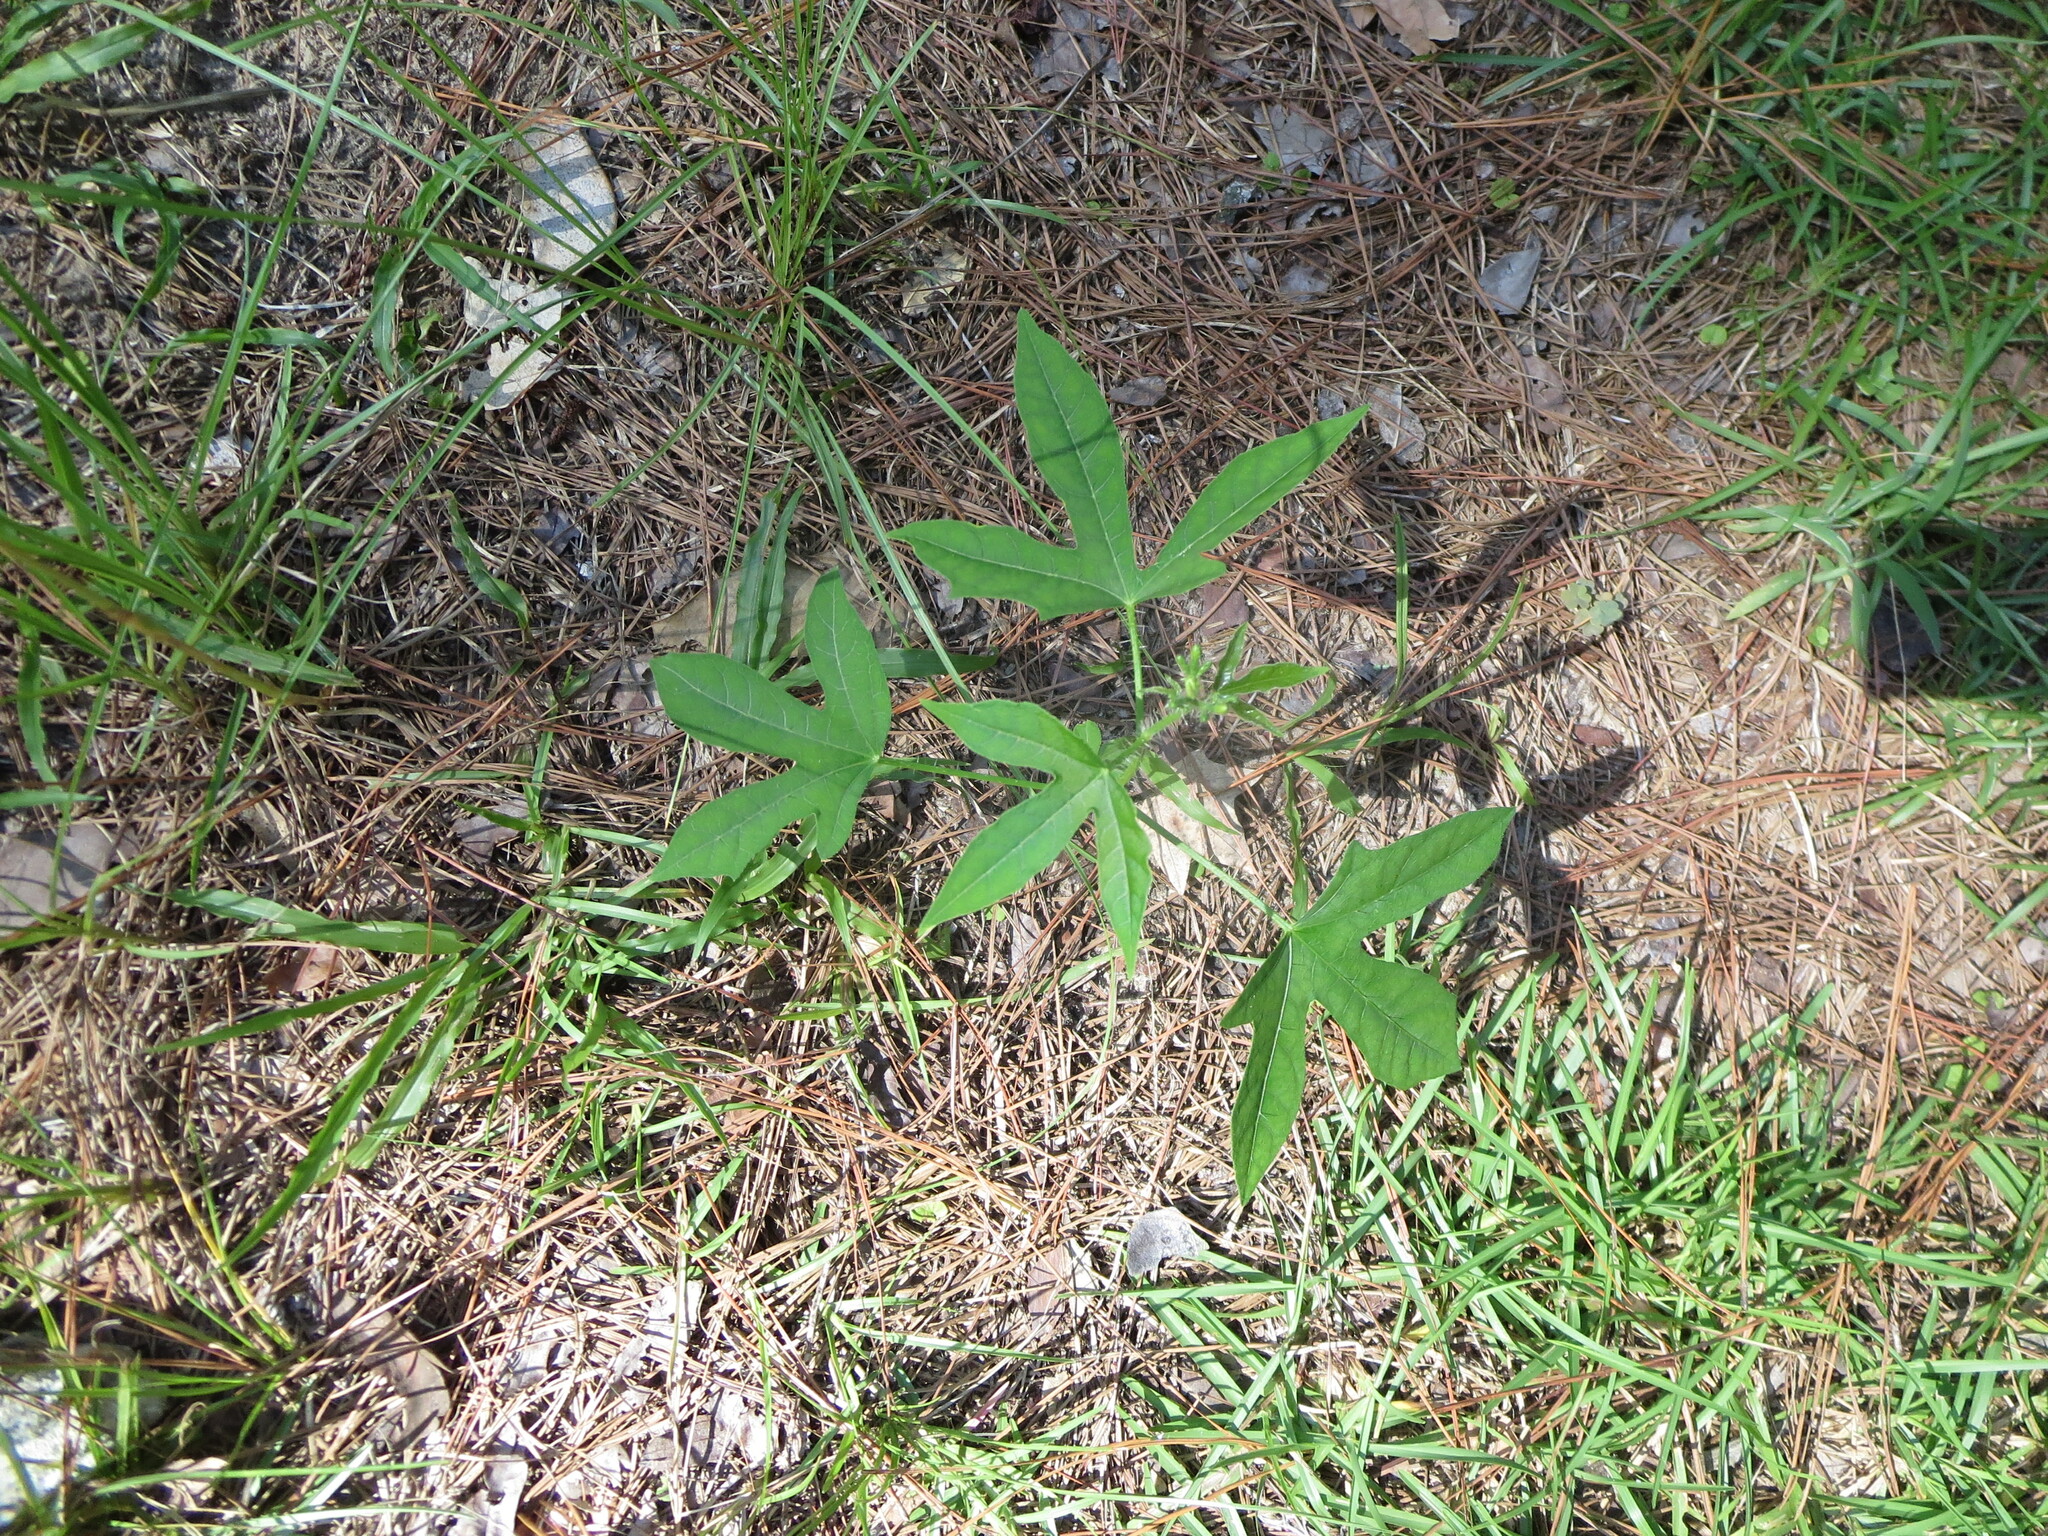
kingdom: Plantae
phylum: Tracheophyta
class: Magnoliopsida
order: Malpighiales
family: Euphorbiaceae
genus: Cnidoscolus
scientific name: Cnidoscolus stimulosus
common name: Bull-nettle
